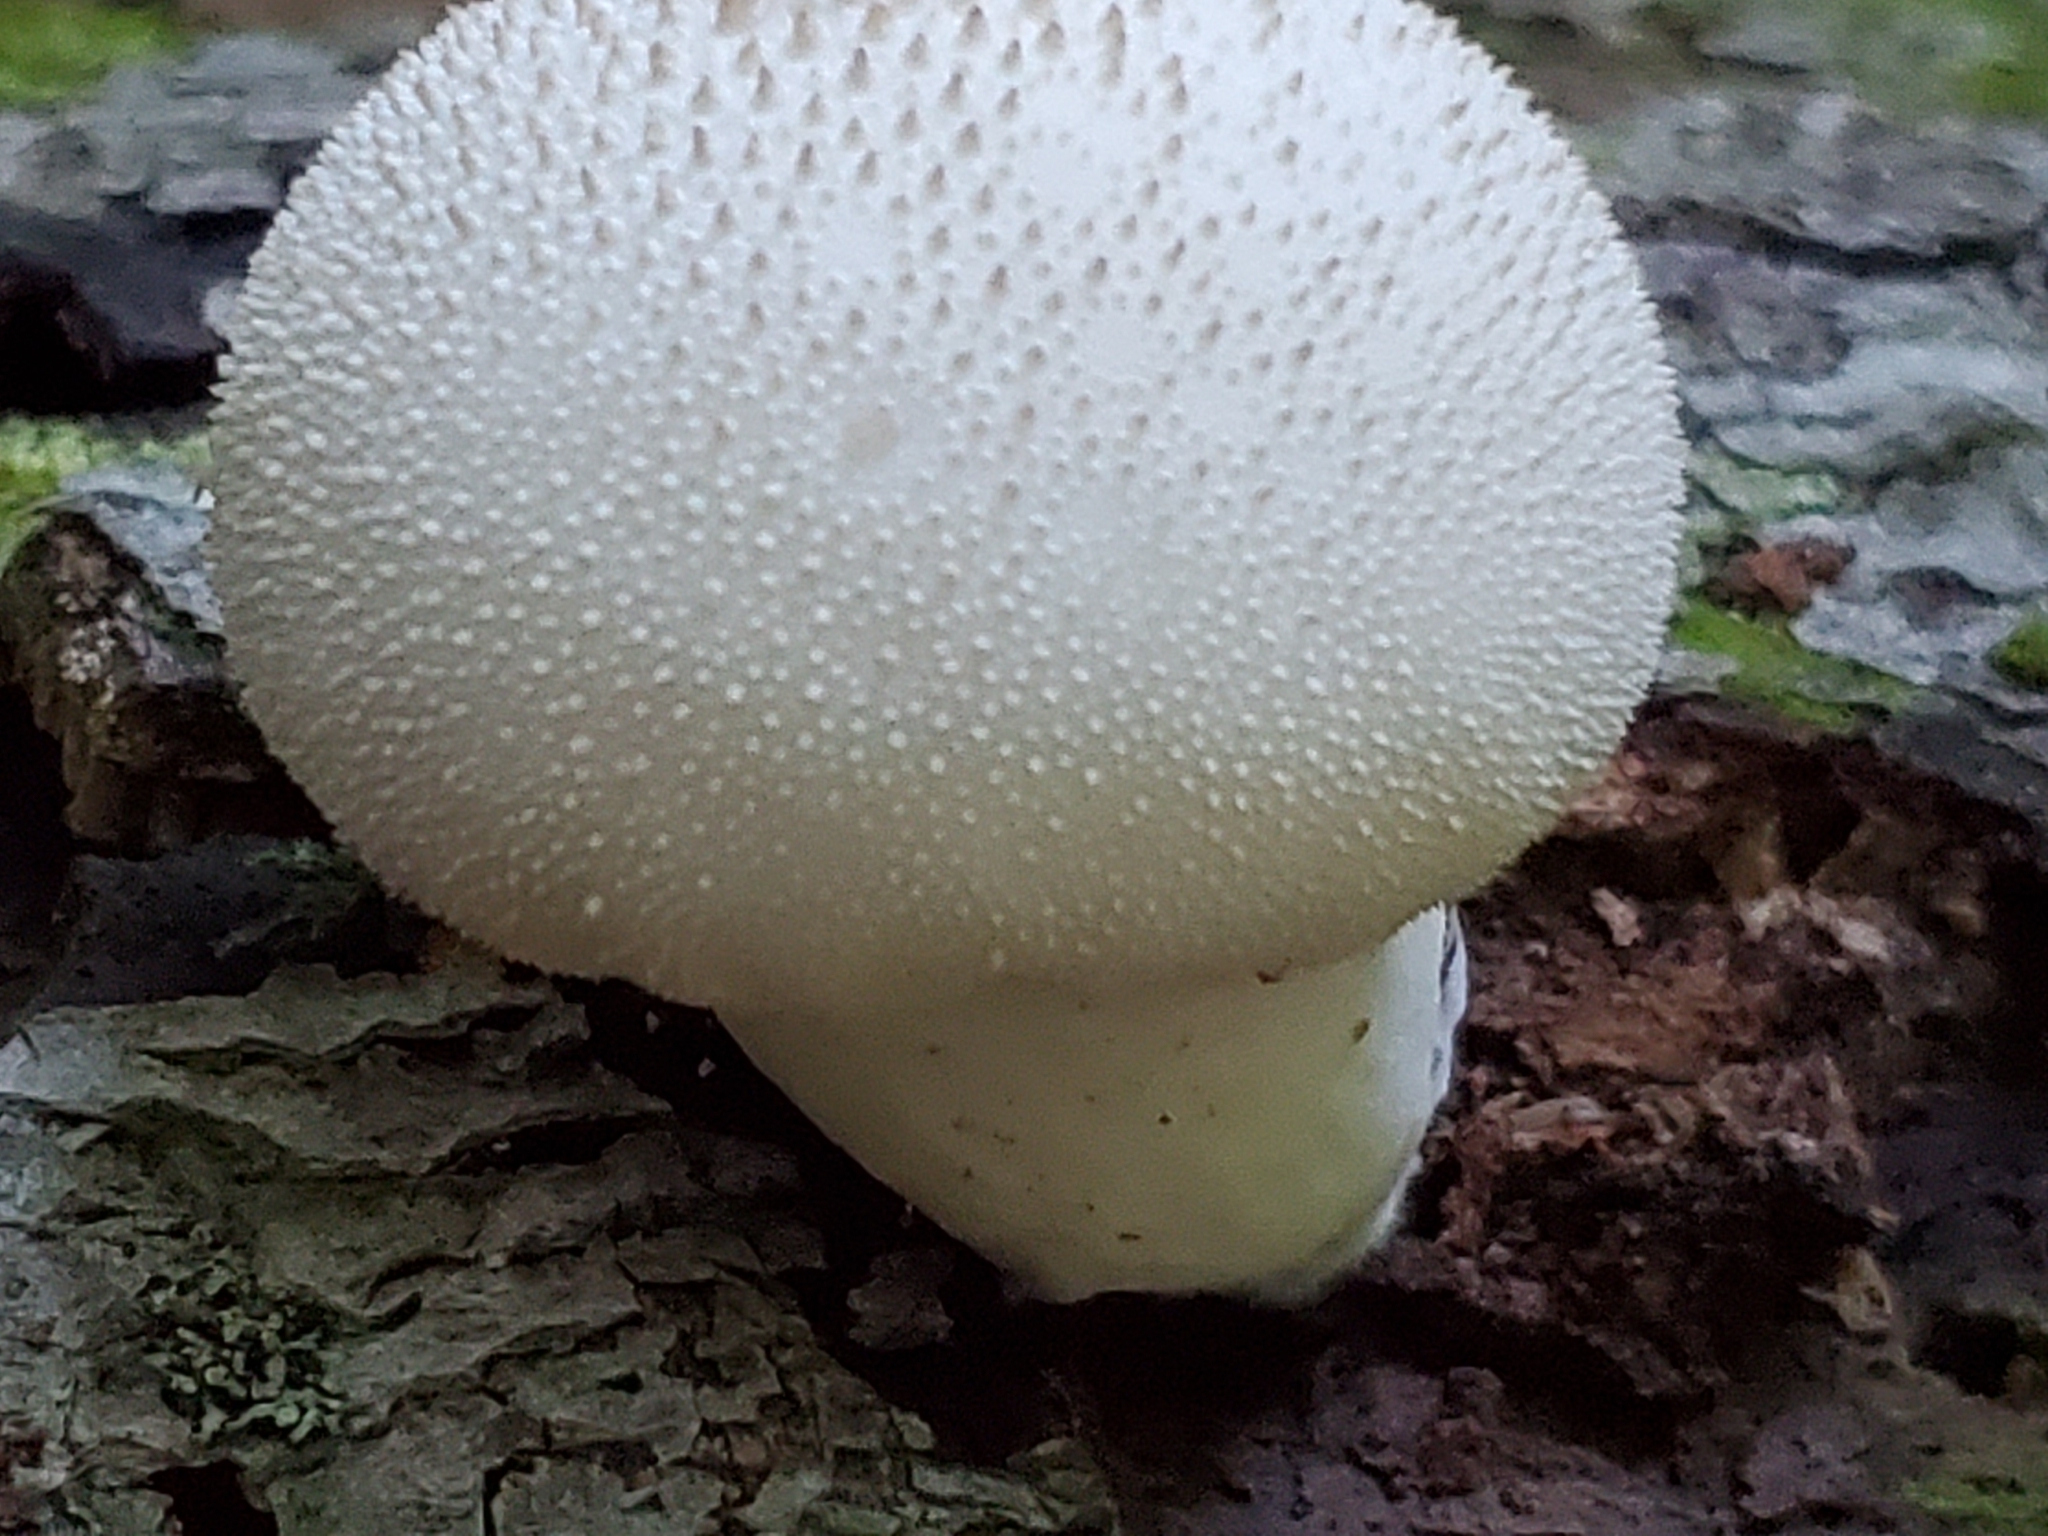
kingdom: Fungi
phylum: Basidiomycota
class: Agaricomycetes
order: Agaricales
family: Lycoperdaceae
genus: Lycoperdon
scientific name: Lycoperdon perlatum
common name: Common puffball
